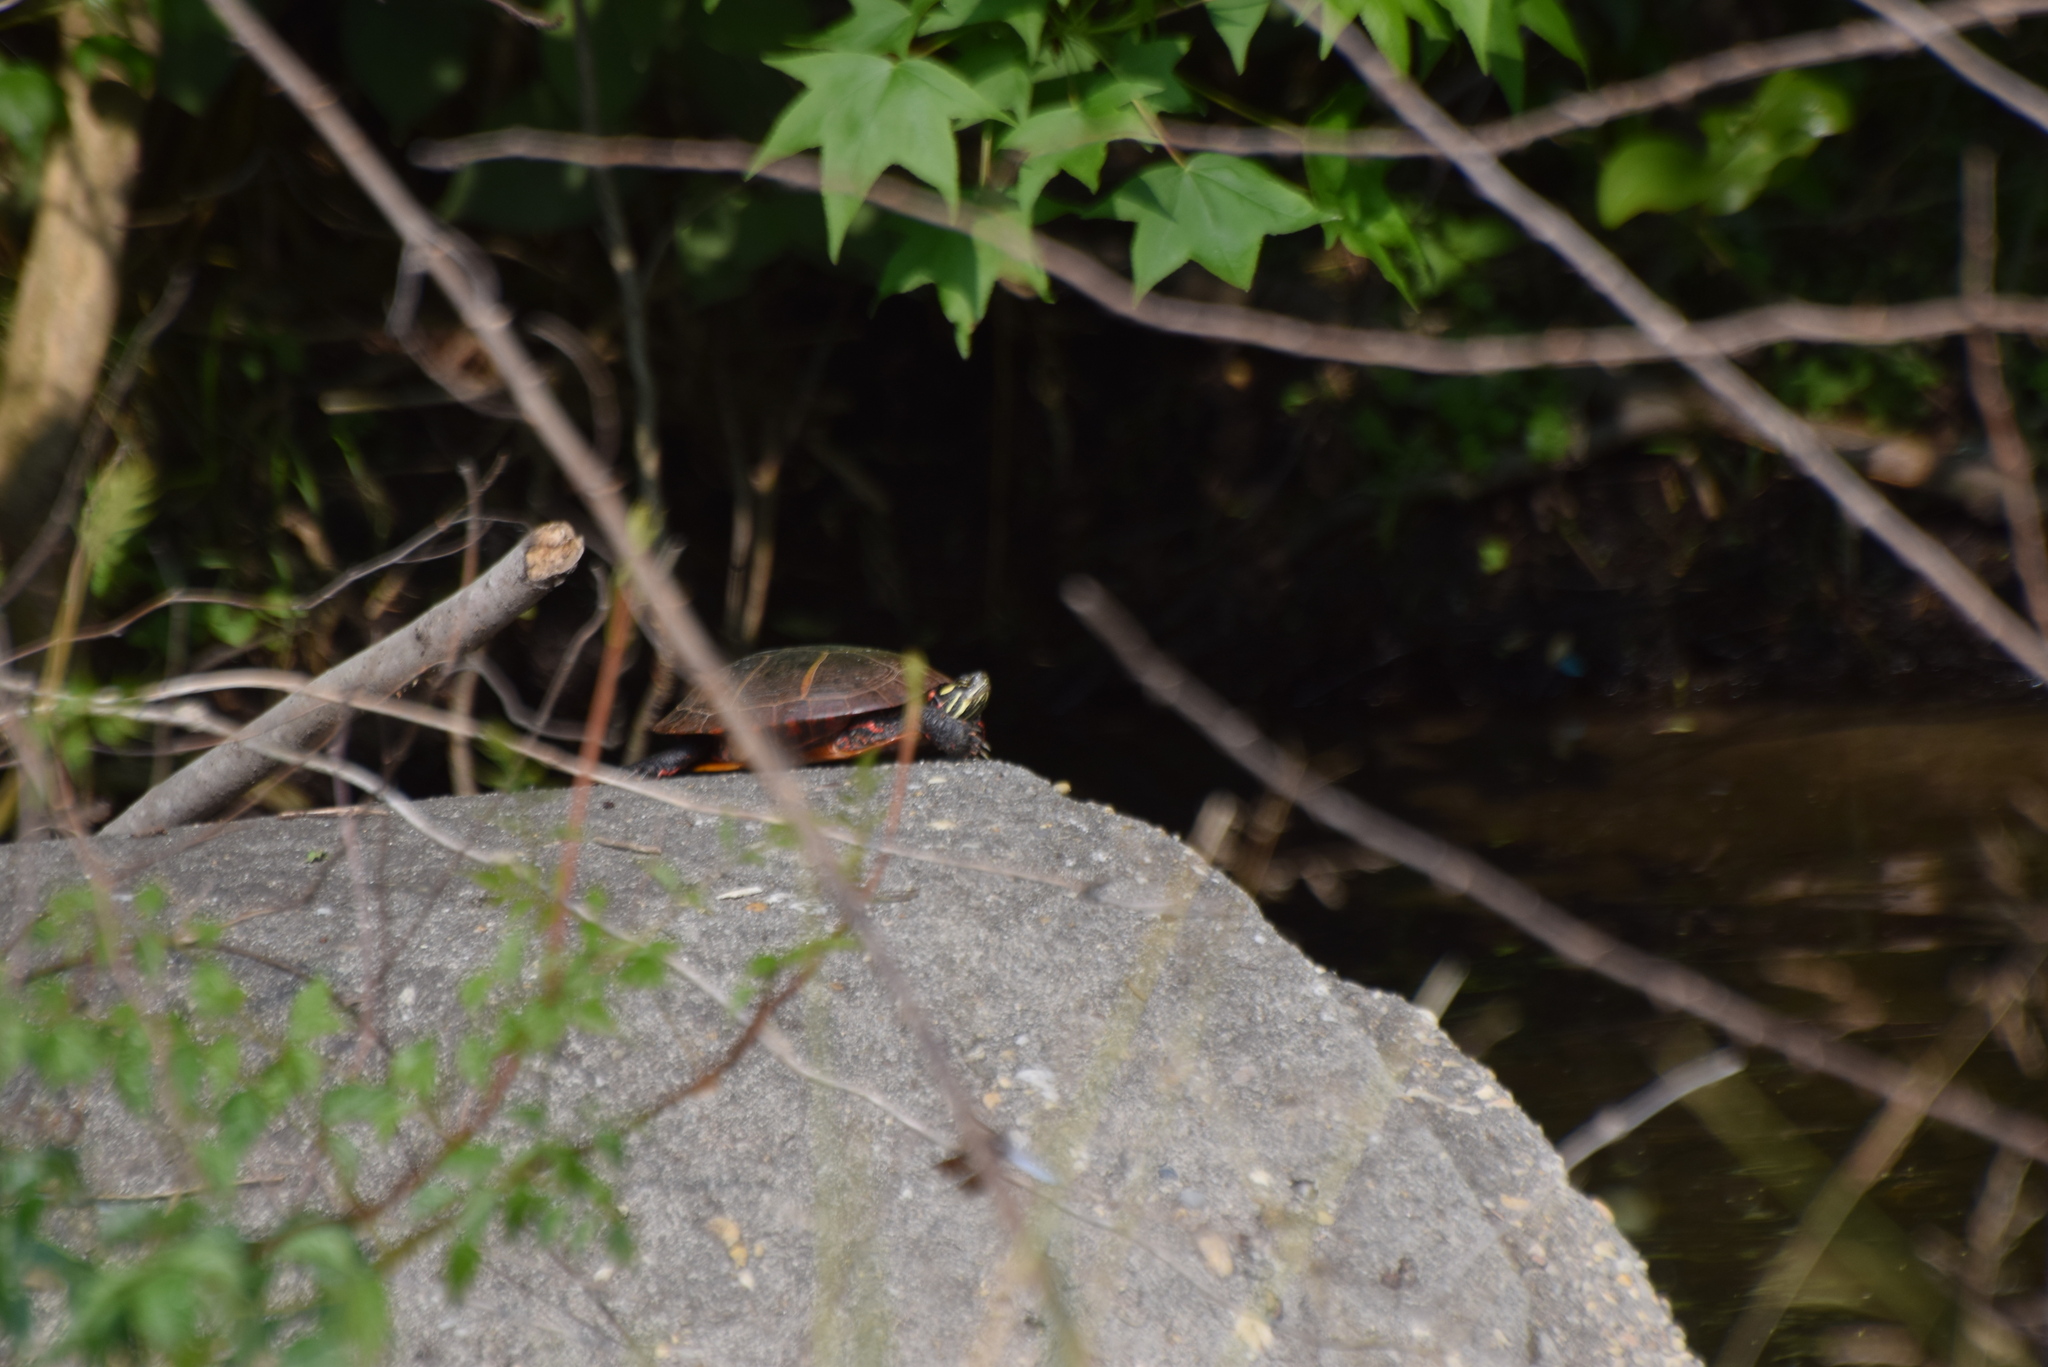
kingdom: Animalia
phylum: Chordata
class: Testudines
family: Emydidae
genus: Chrysemys
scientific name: Chrysemys picta
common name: Painted turtle
